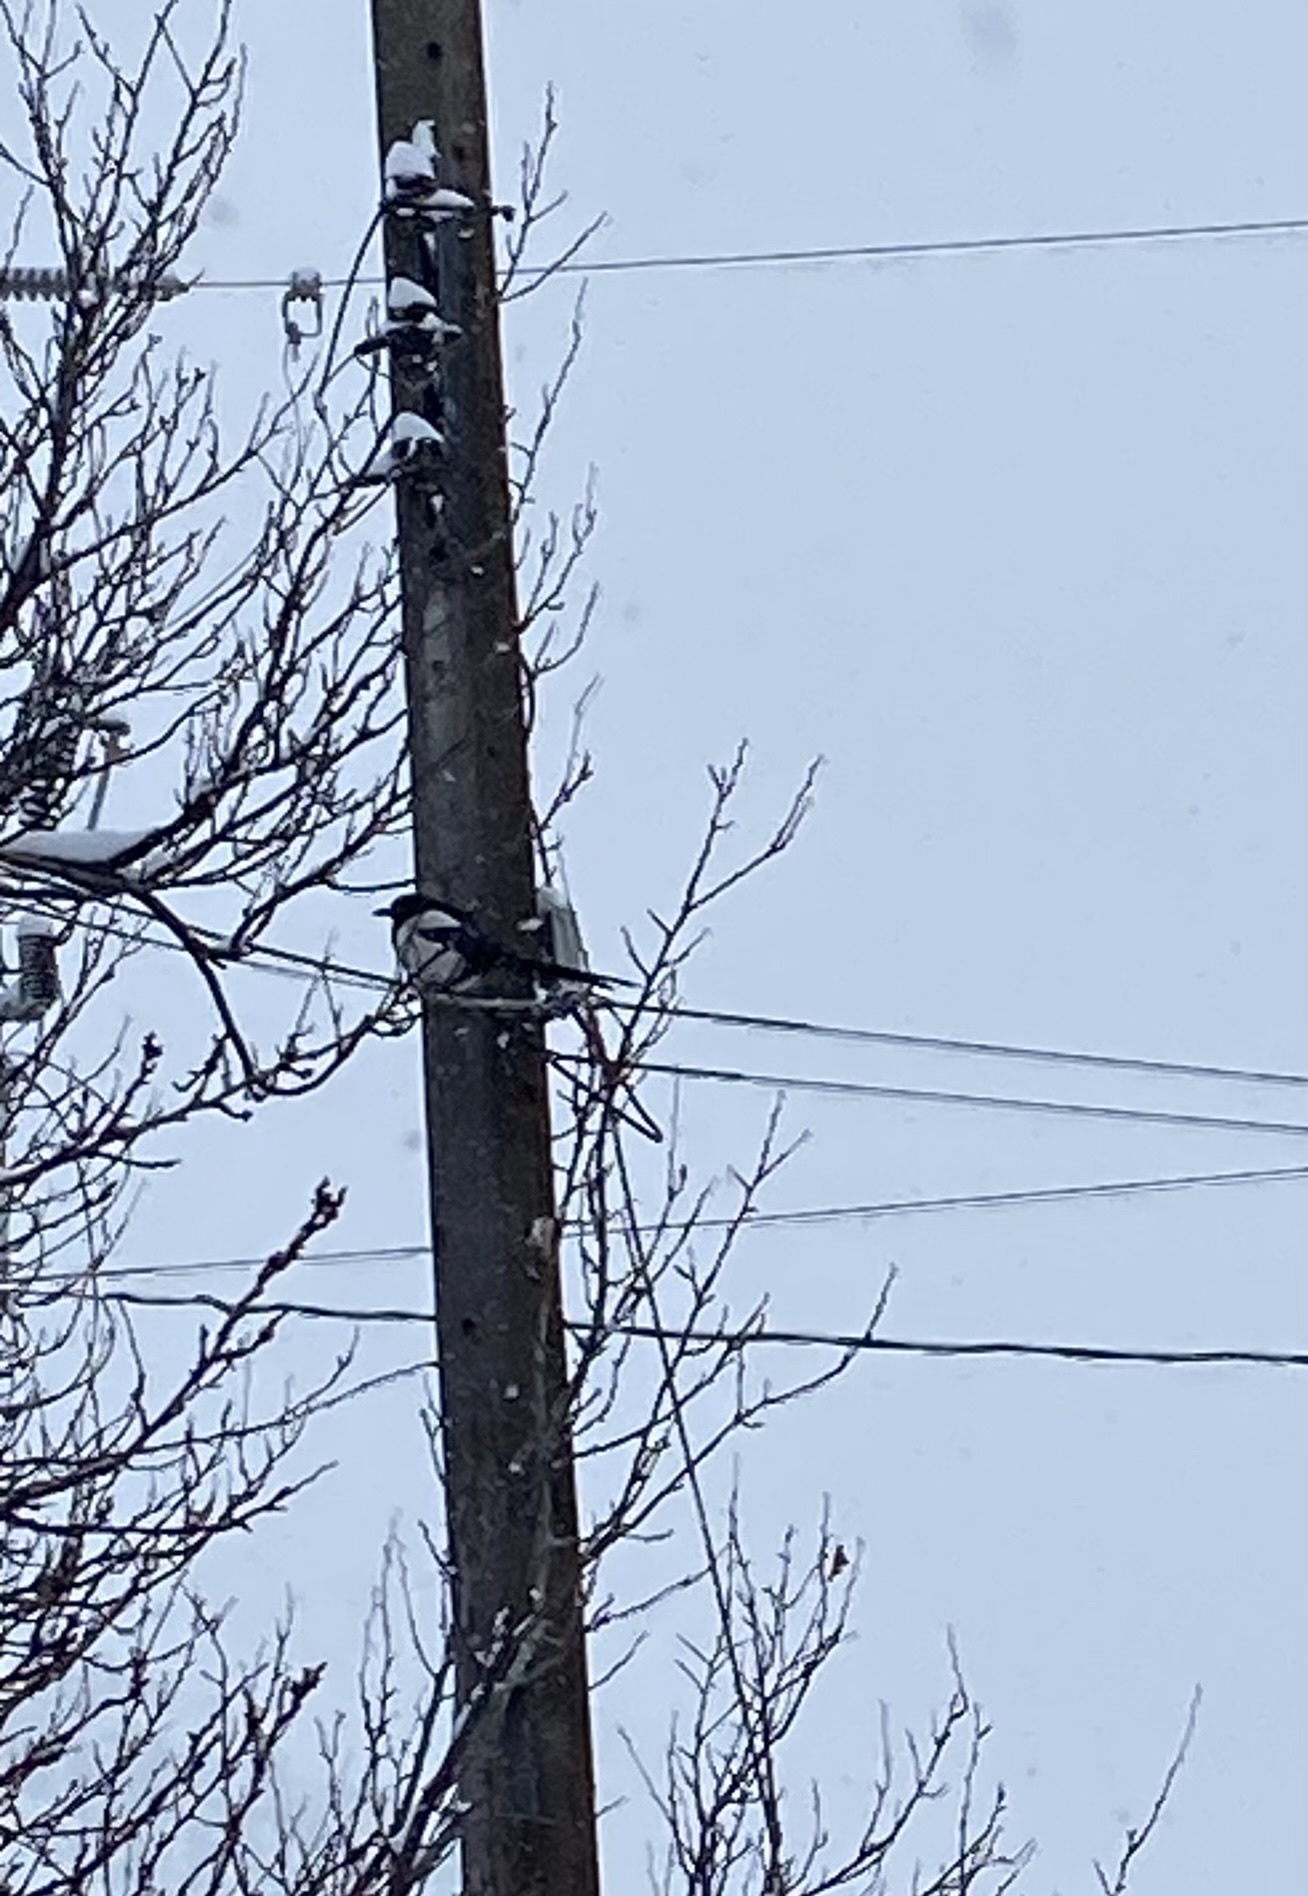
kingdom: Animalia
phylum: Chordata
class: Aves
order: Passeriformes
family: Corvidae
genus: Pica
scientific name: Pica hudsonia
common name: Black-billed magpie
